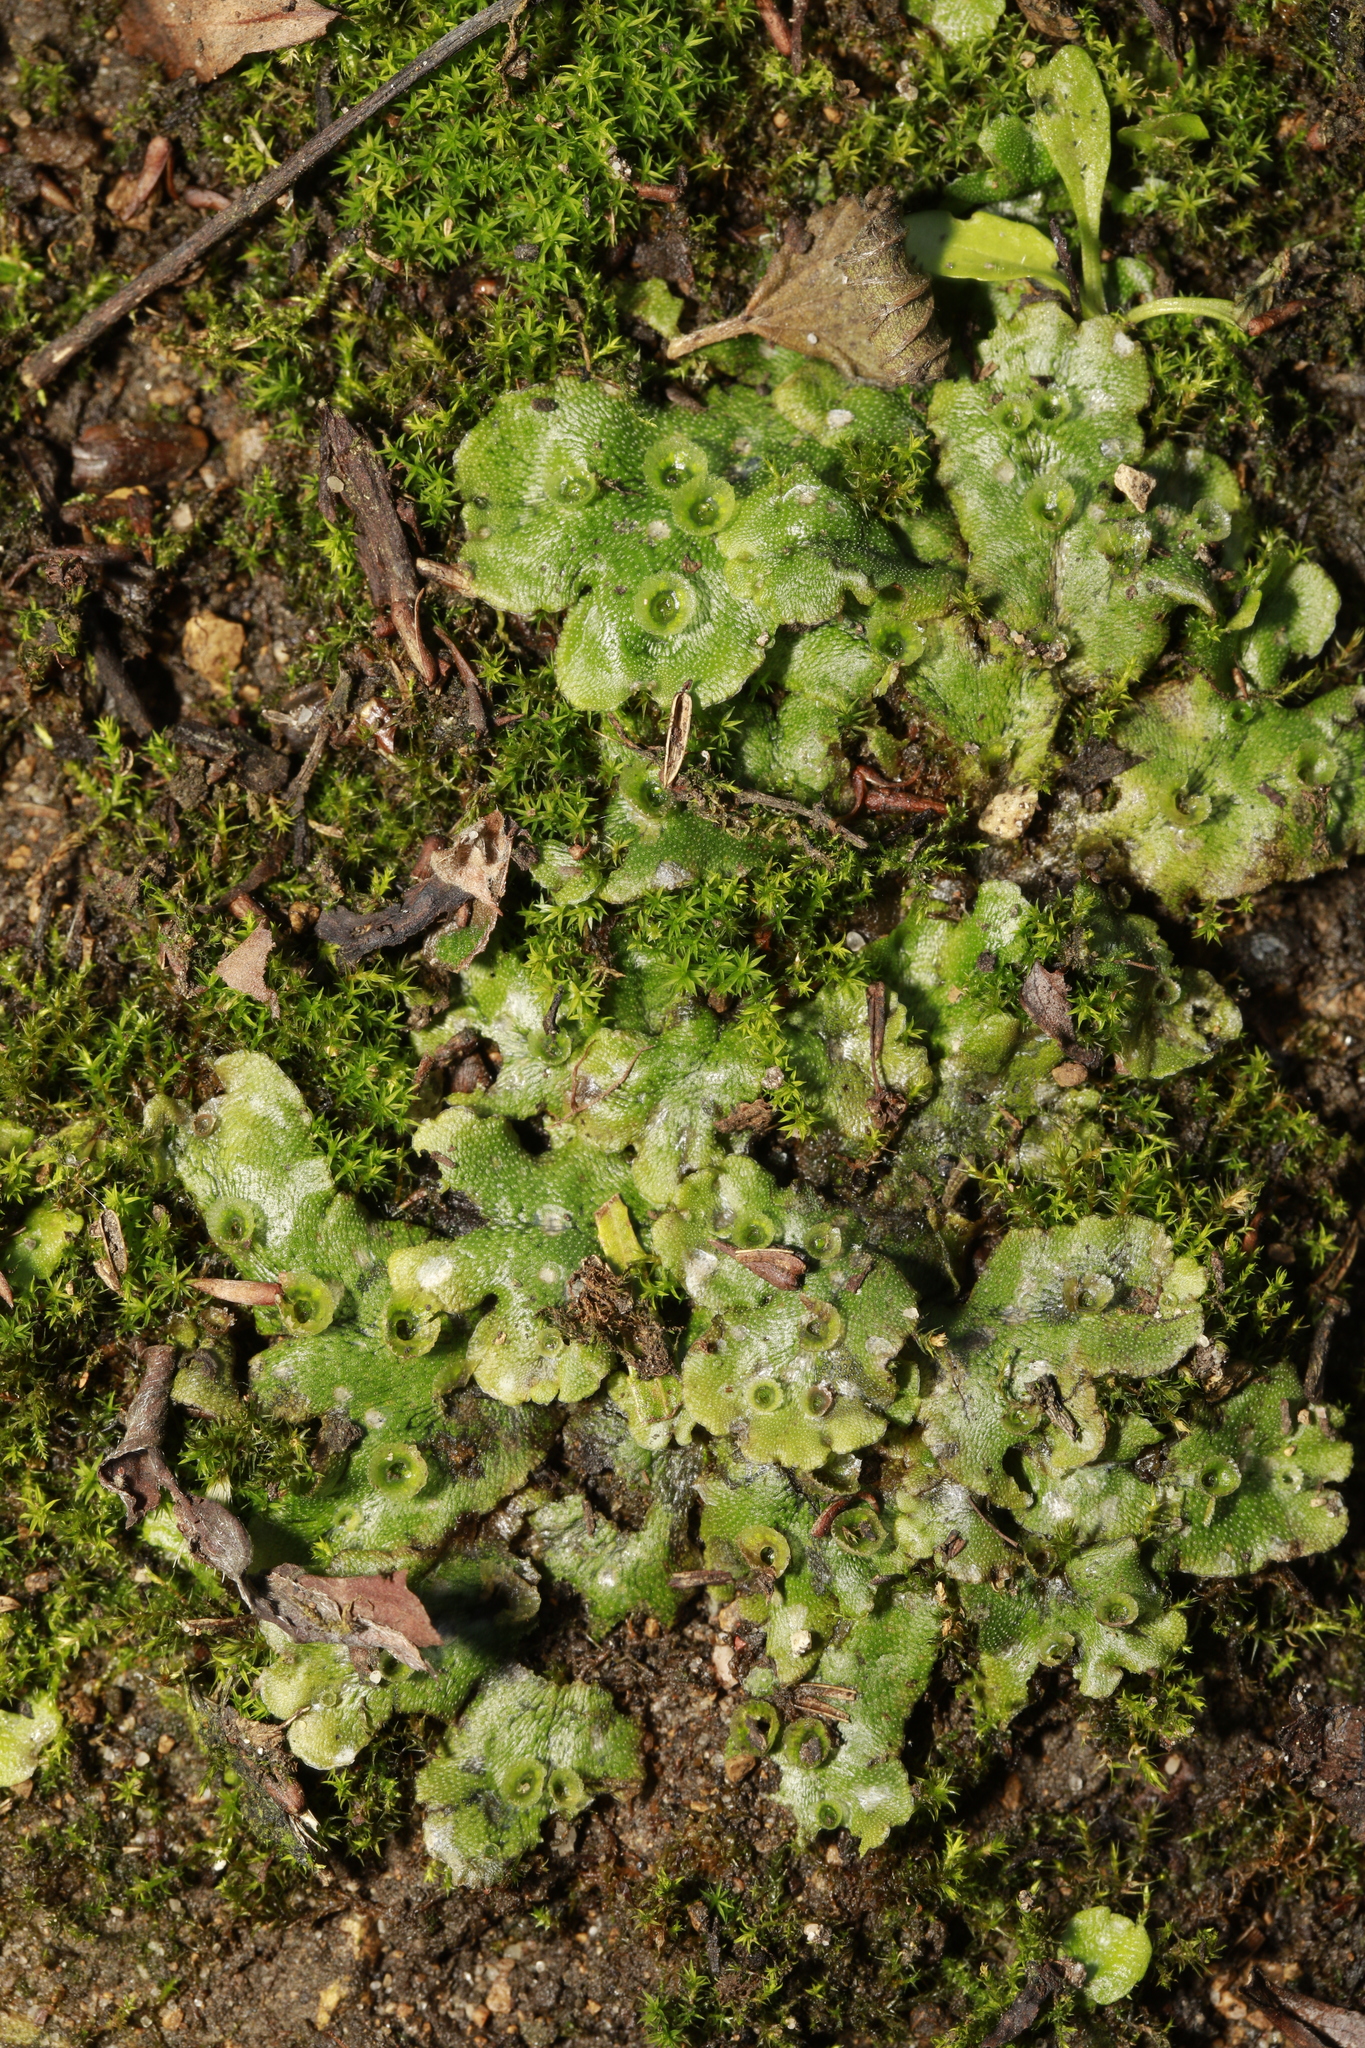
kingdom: Plantae
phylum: Marchantiophyta
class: Marchantiopsida
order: Marchantiales
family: Marchantiaceae
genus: Marchantia
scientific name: Marchantia polymorpha
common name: Common liverwort
